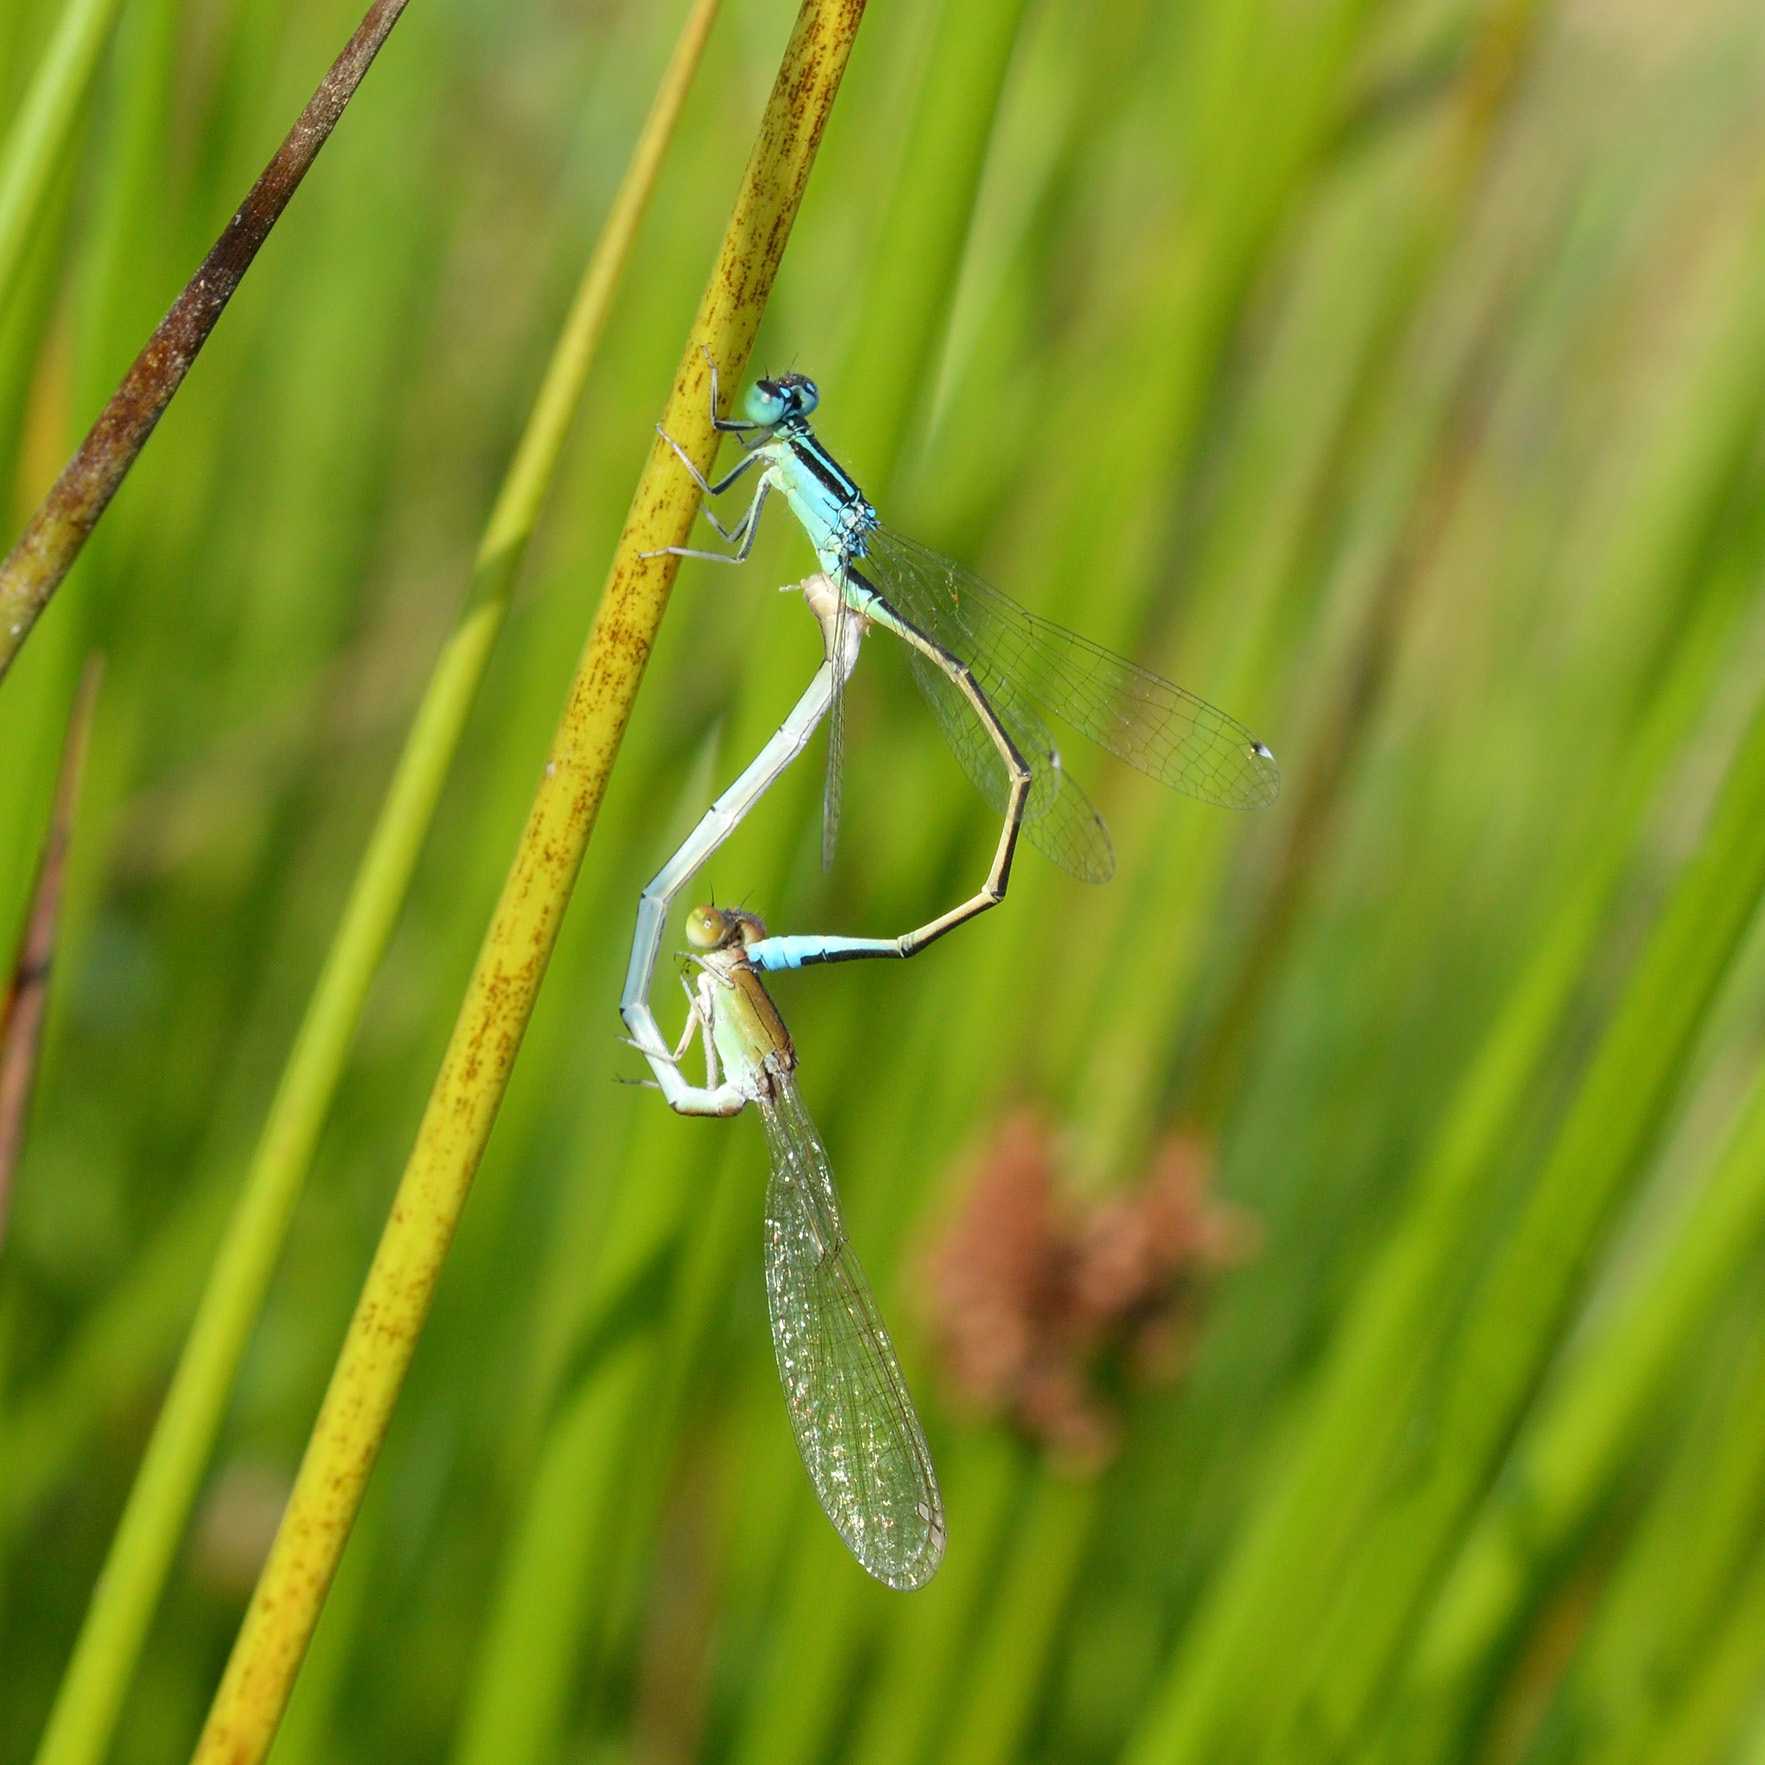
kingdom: Animalia
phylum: Arthropoda
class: Insecta
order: Odonata
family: Coenagrionidae
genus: Ischnura
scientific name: Ischnura pumilio
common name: Scarce blue-tailed damselfly
